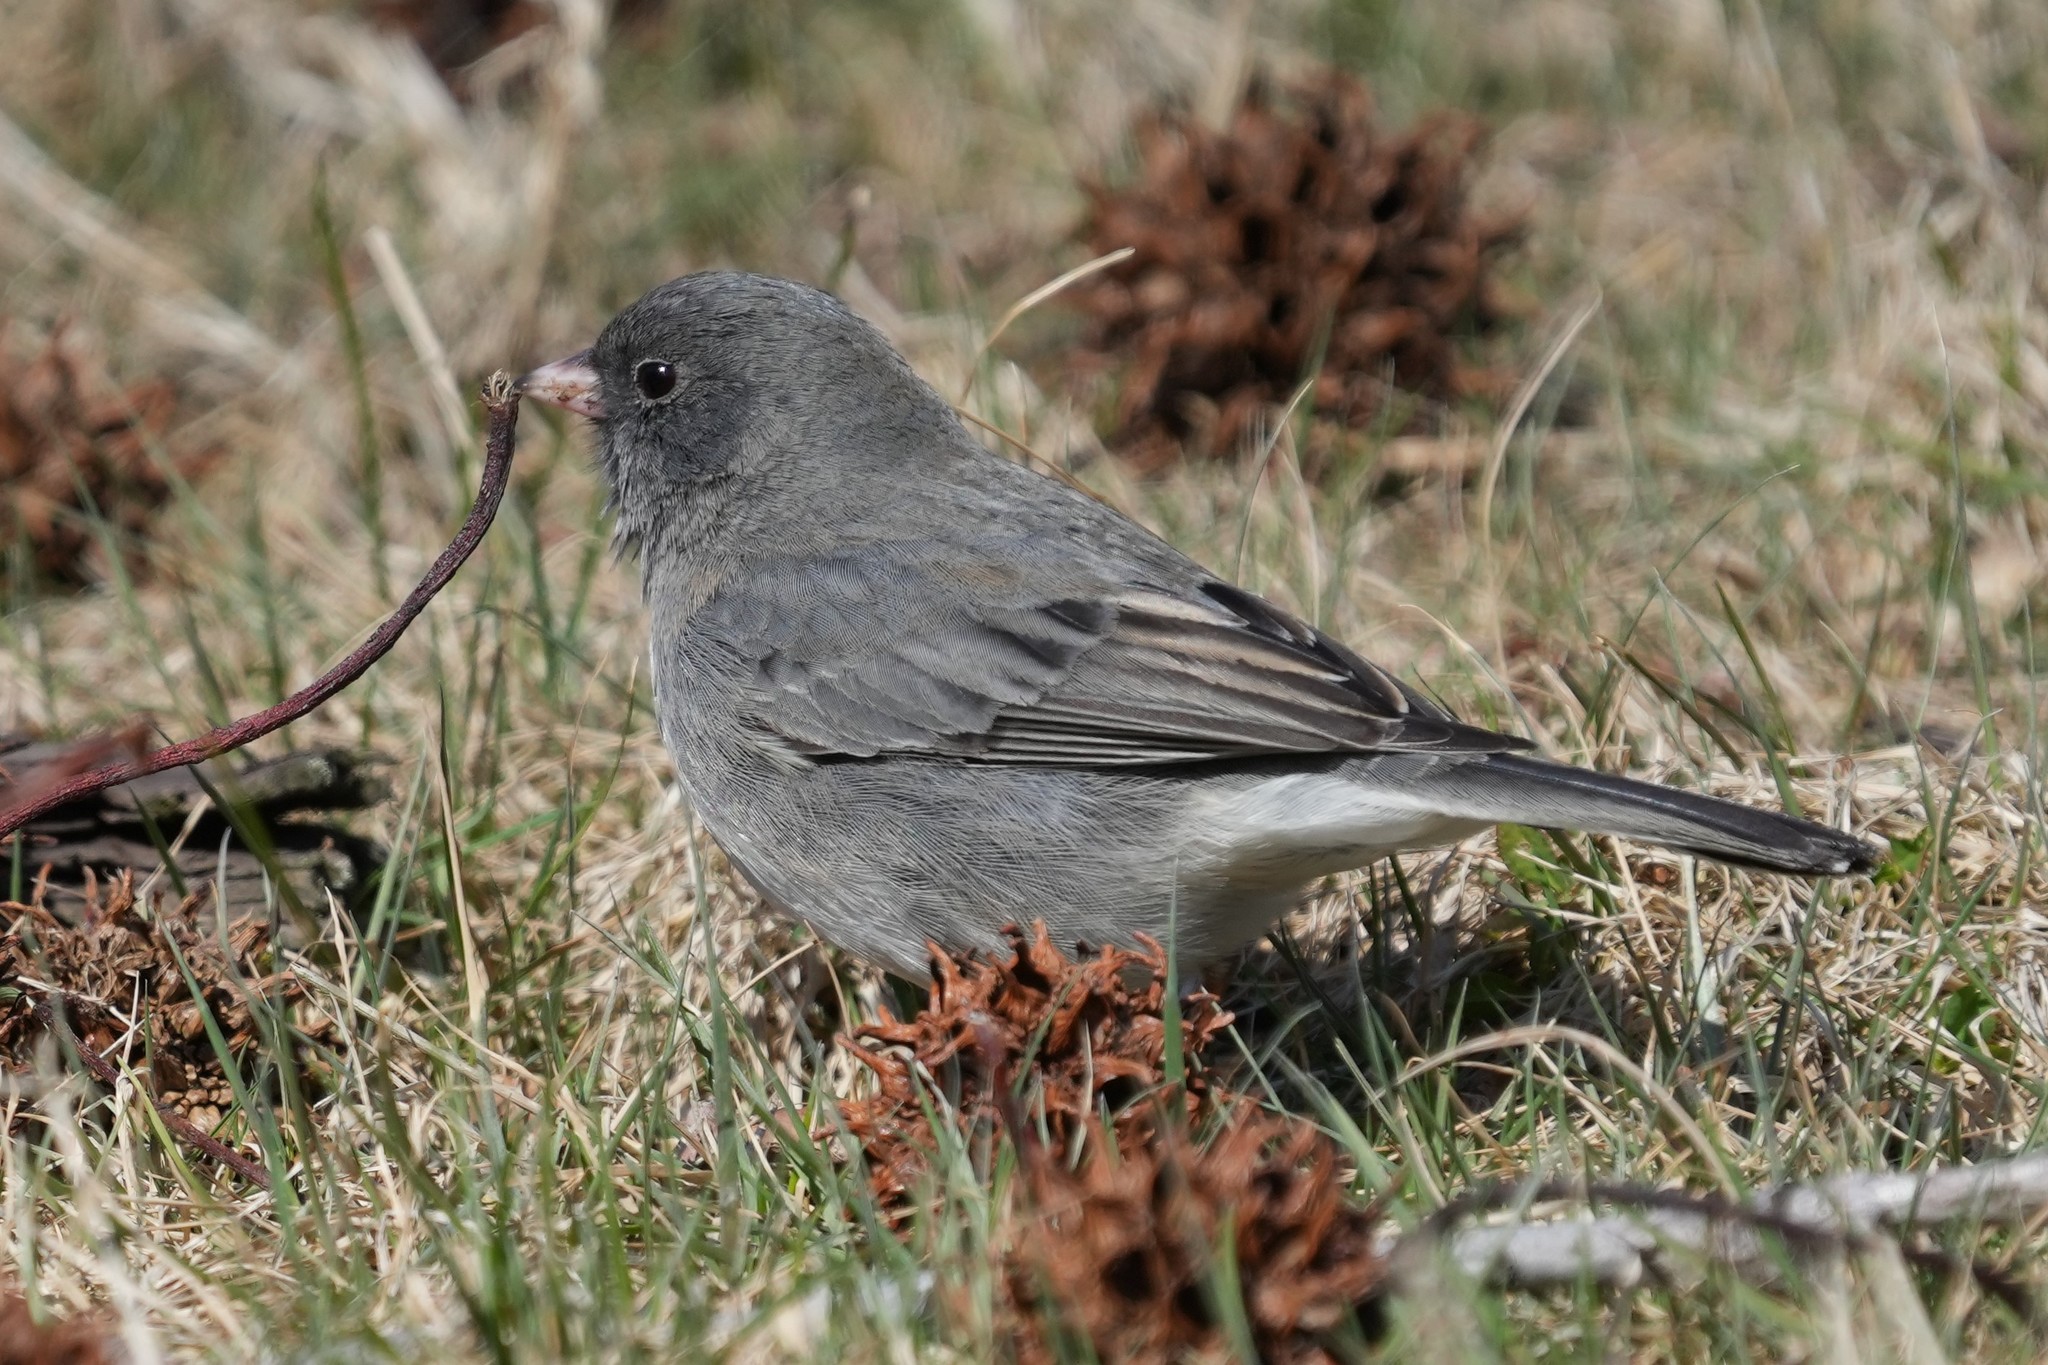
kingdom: Animalia
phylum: Chordata
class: Aves
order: Passeriformes
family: Passerellidae
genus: Junco
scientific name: Junco hyemalis
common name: Dark-eyed junco
